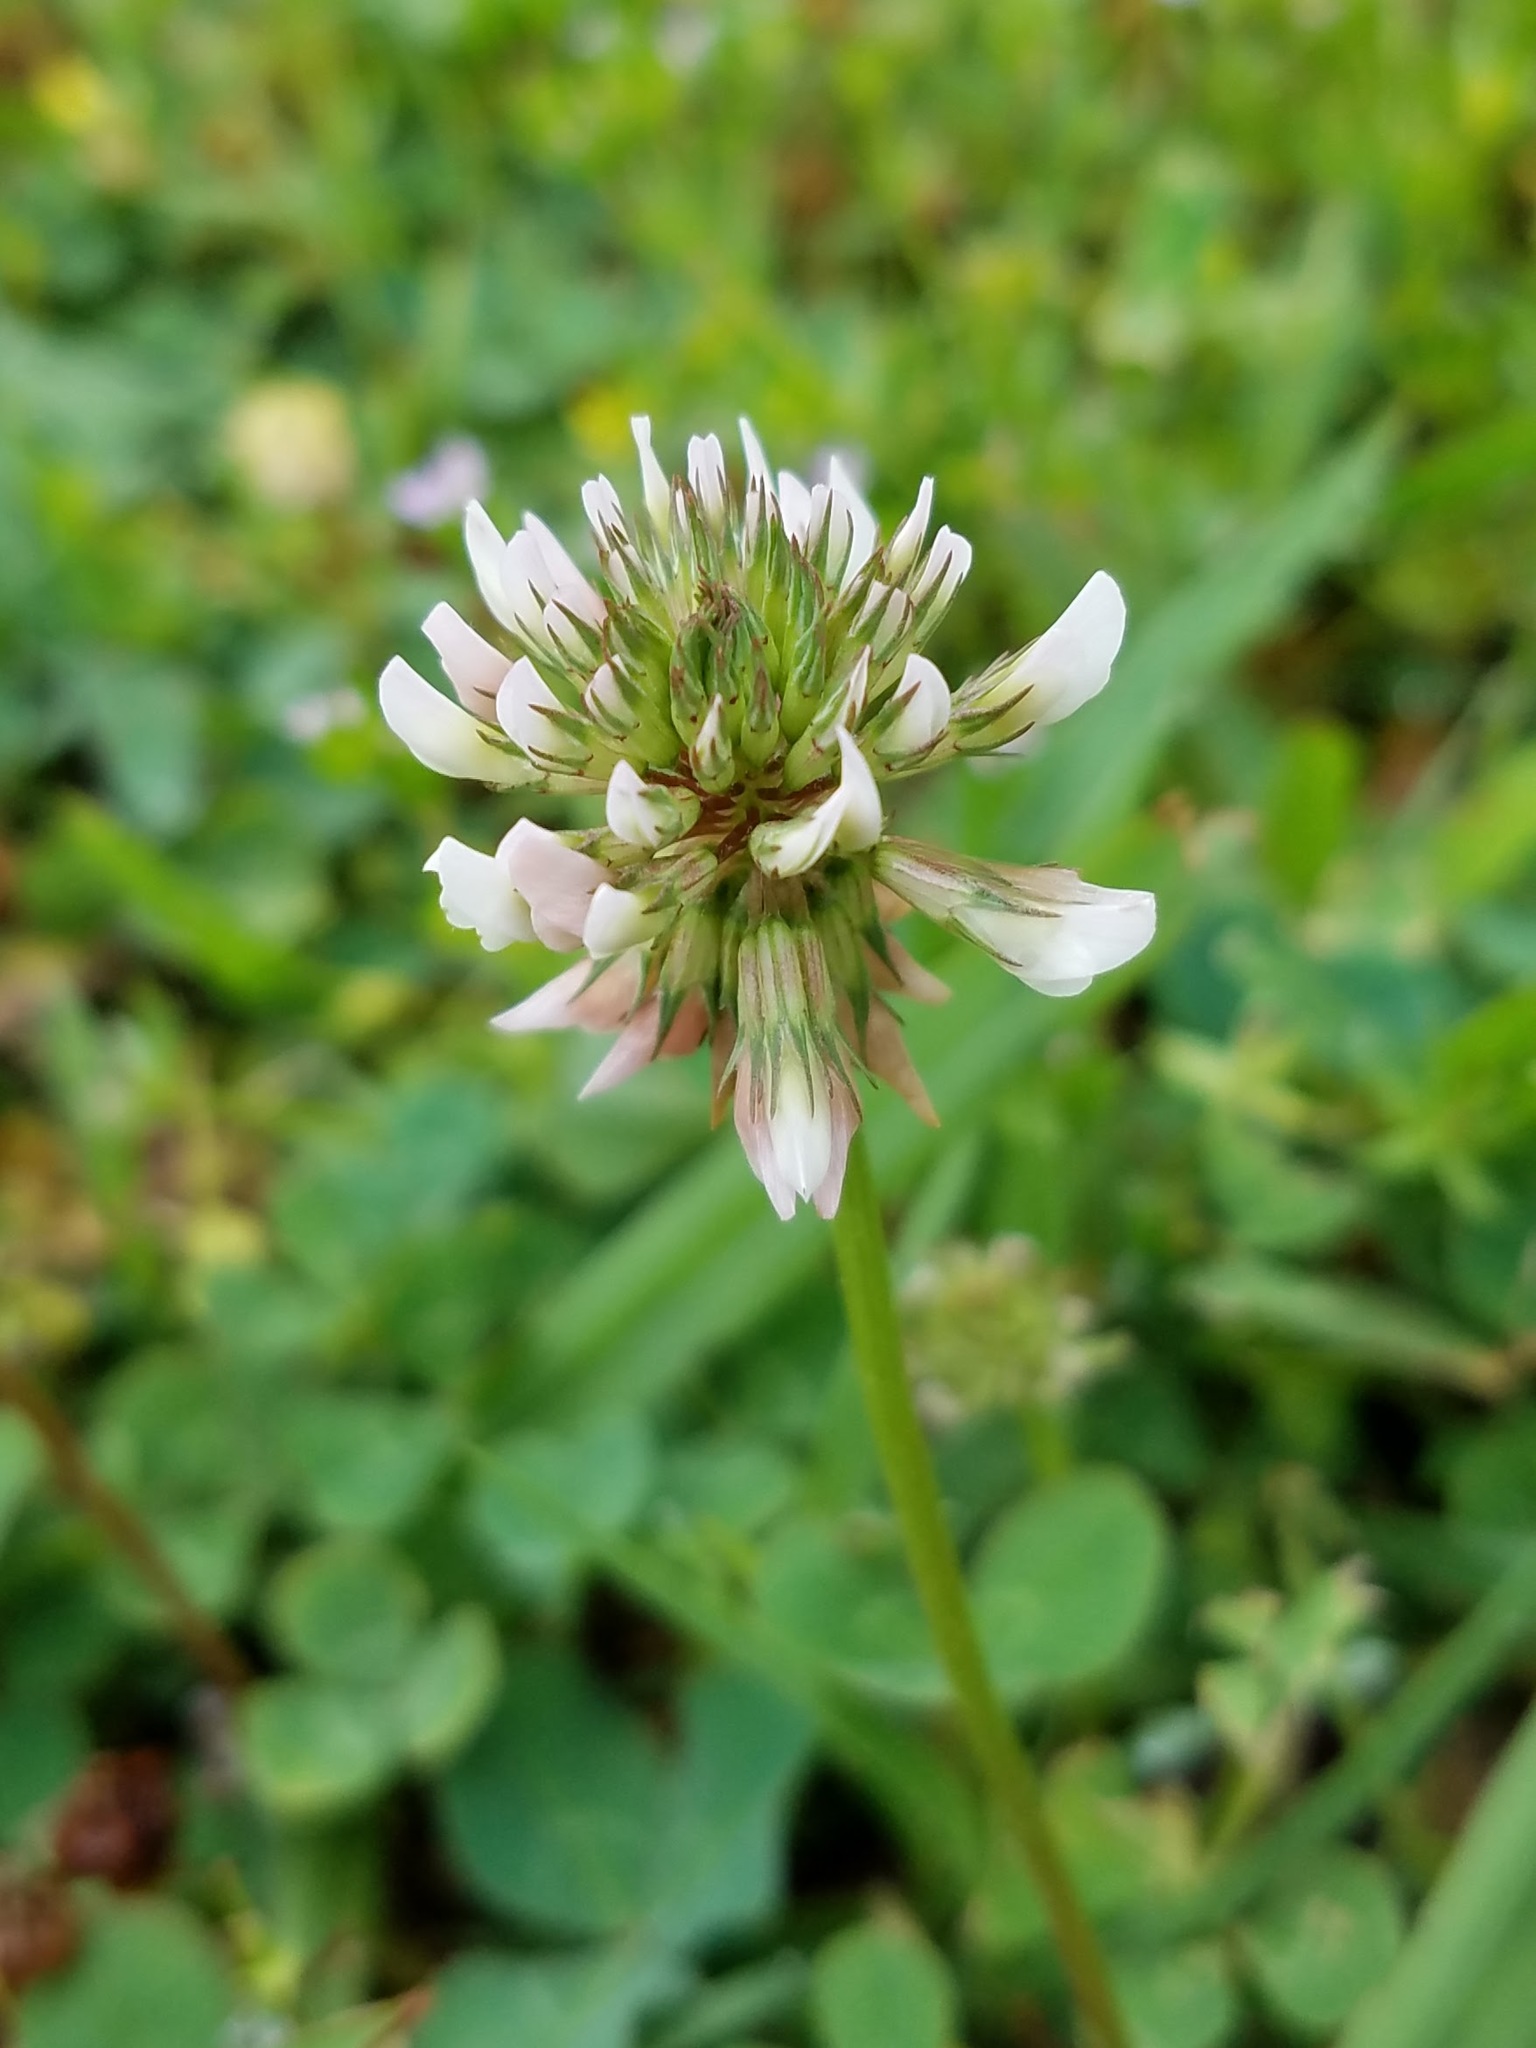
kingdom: Plantae
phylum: Tracheophyta
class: Magnoliopsida
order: Fabales
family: Fabaceae
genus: Trifolium
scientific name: Trifolium repens
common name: White clover
